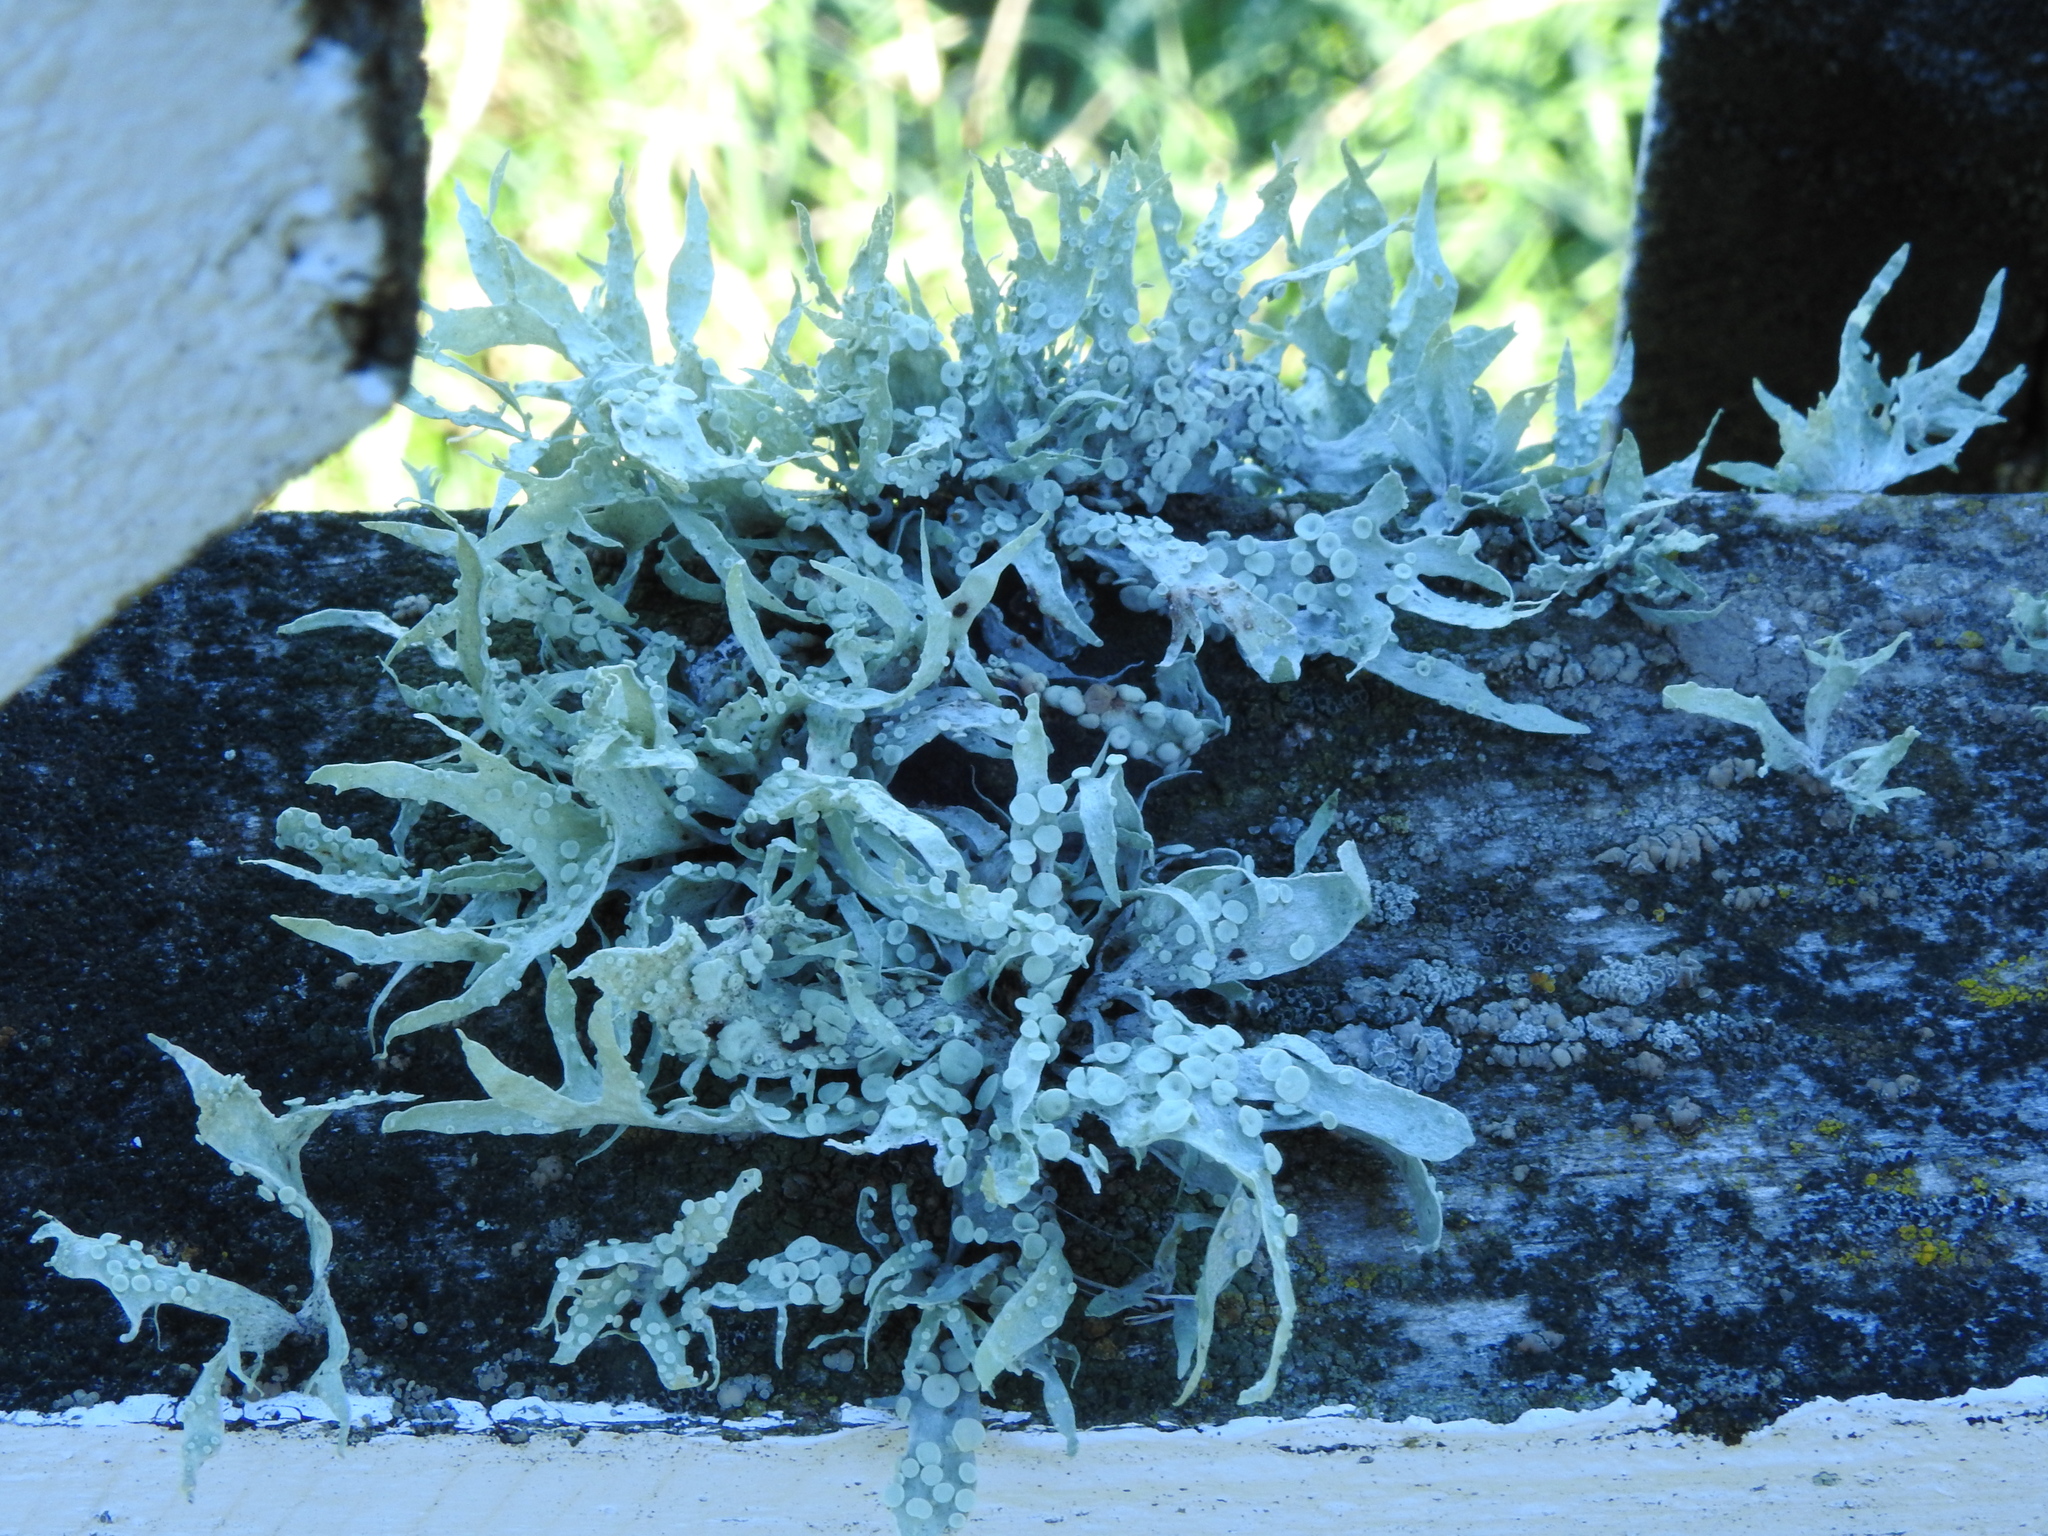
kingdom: Fungi
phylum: Ascomycota
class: Lecanoromycetes
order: Lecanorales
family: Ramalinaceae
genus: Ramalina
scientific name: Ramalina celastri
